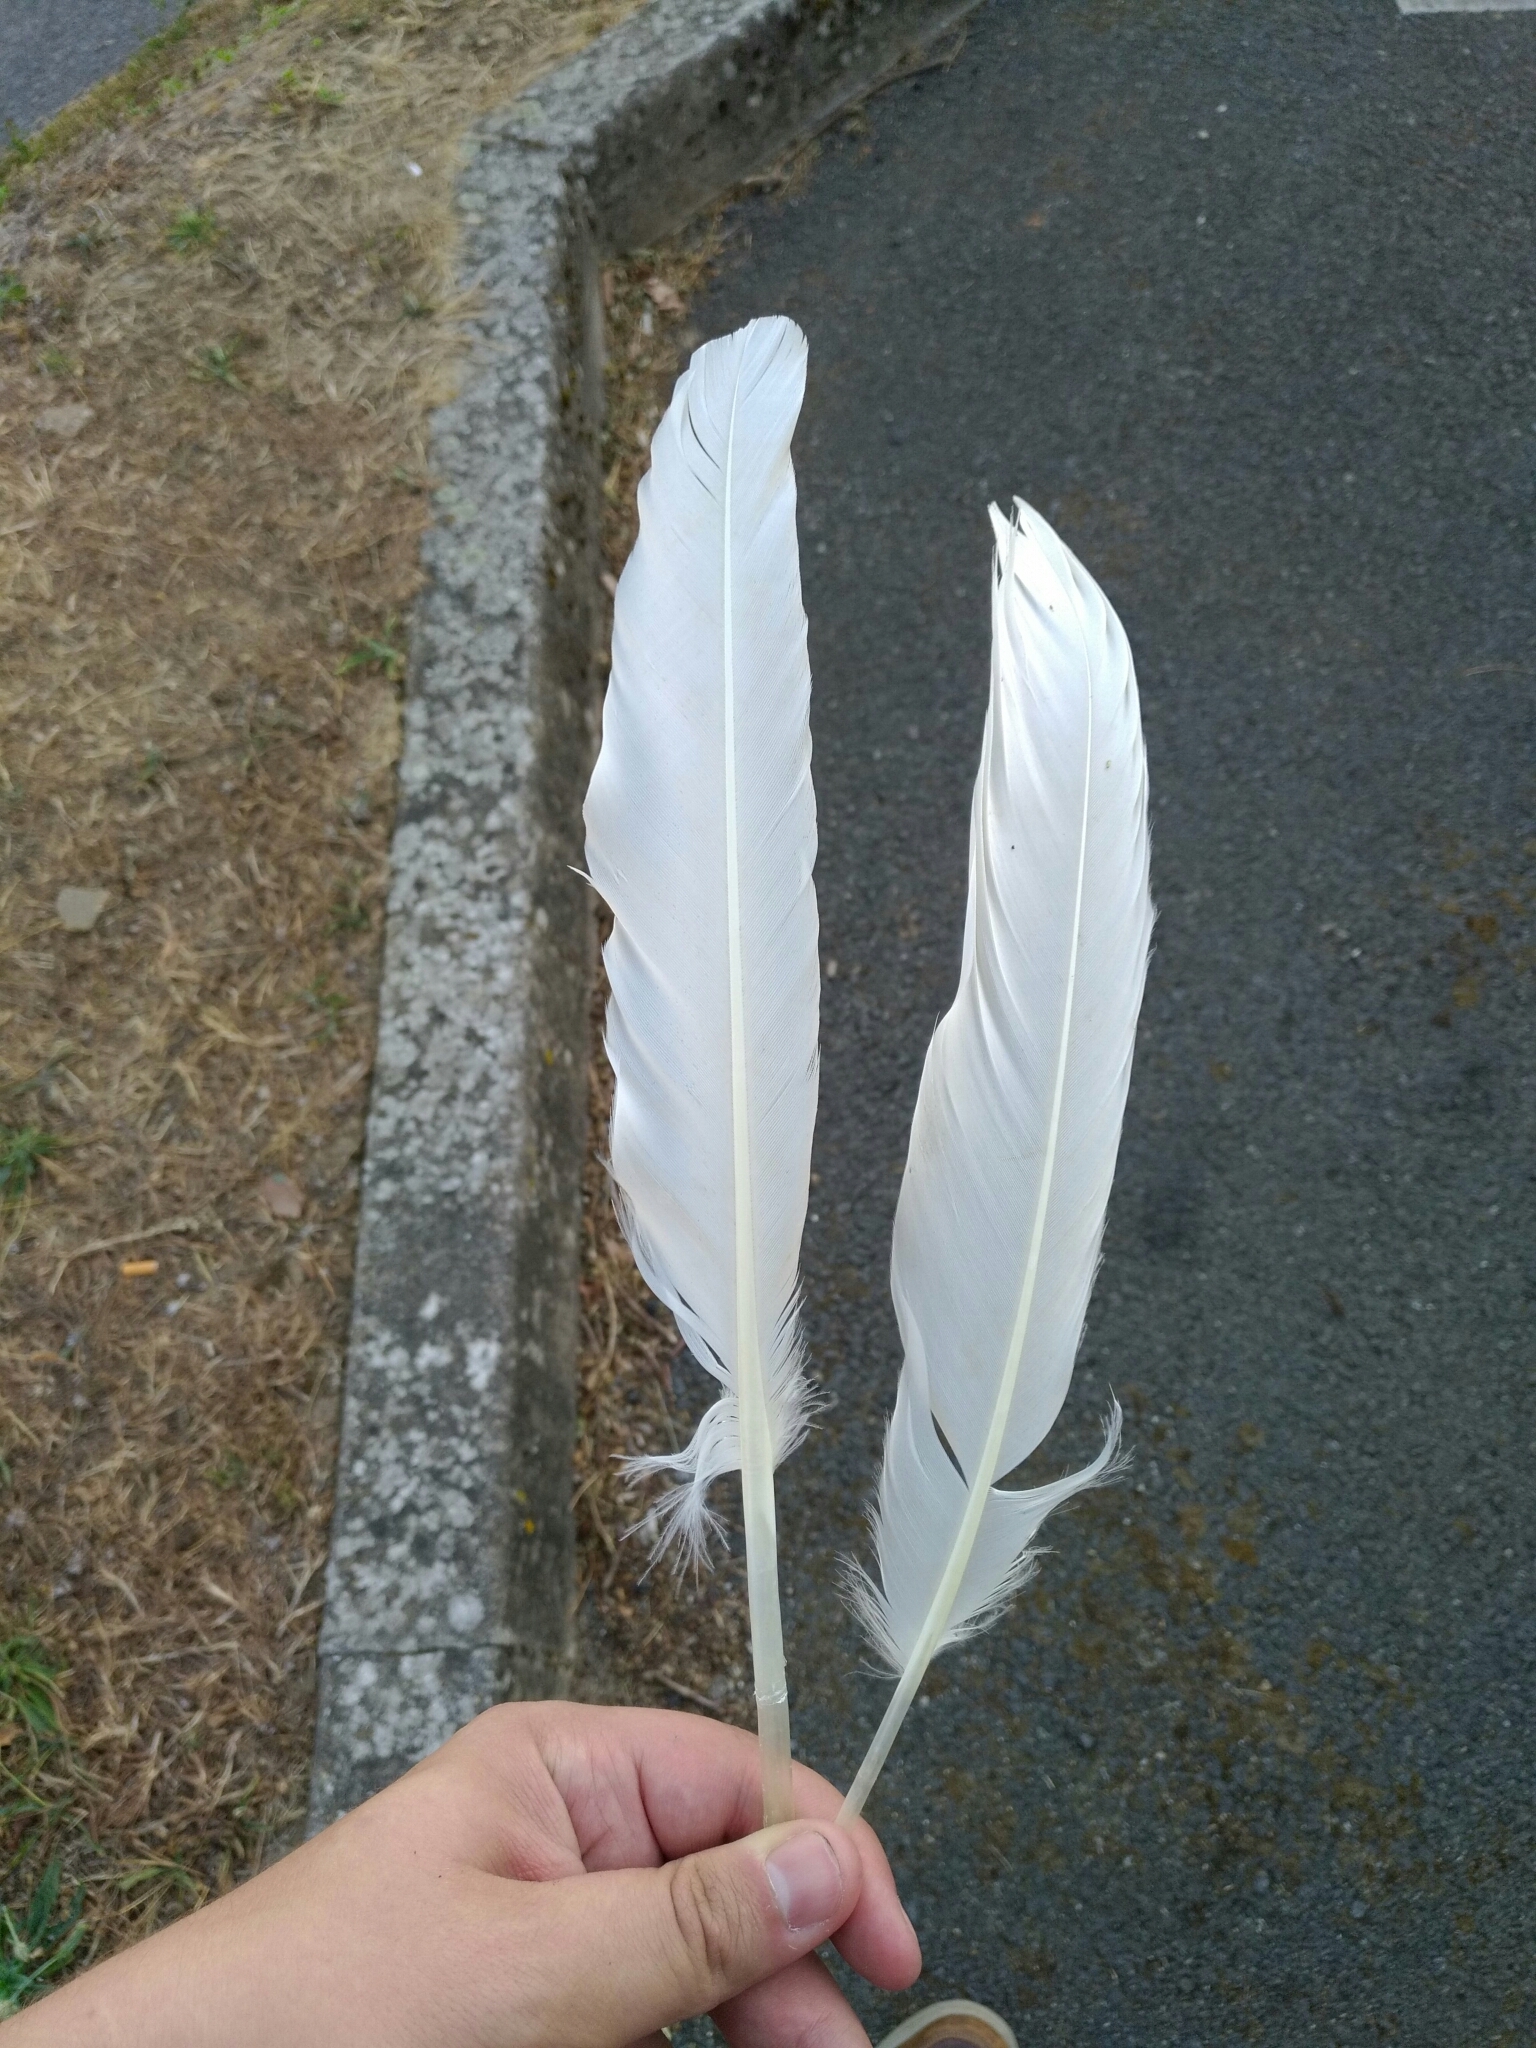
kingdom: Animalia
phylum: Chordata
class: Aves
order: Anseriformes
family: Anatidae
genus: Cygnus
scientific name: Cygnus olor
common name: Mute swan
